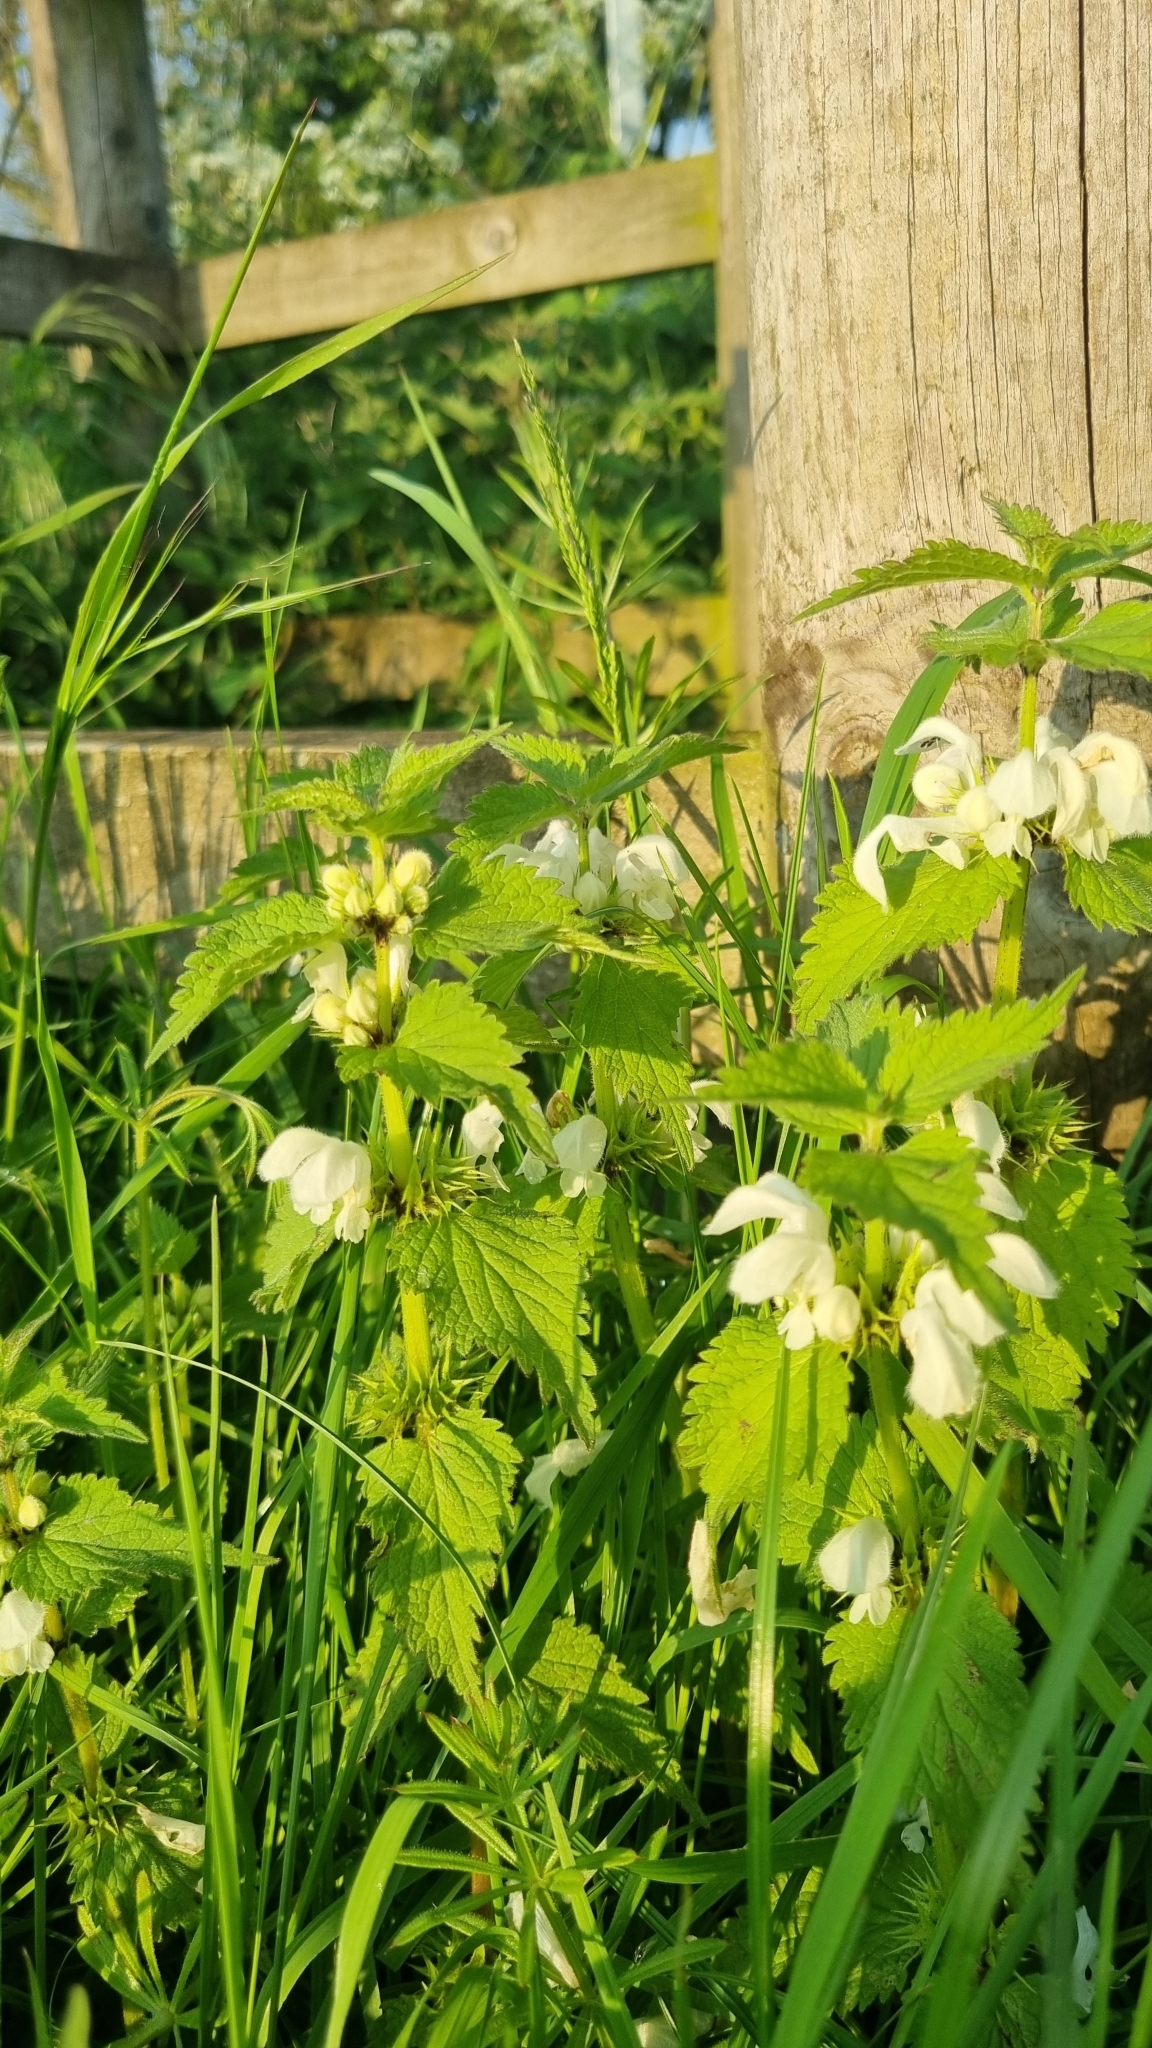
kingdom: Plantae
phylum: Tracheophyta
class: Magnoliopsida
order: Lamiales
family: Lamiaceae
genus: Lamium
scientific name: Lamium album
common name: White dead-nettle
